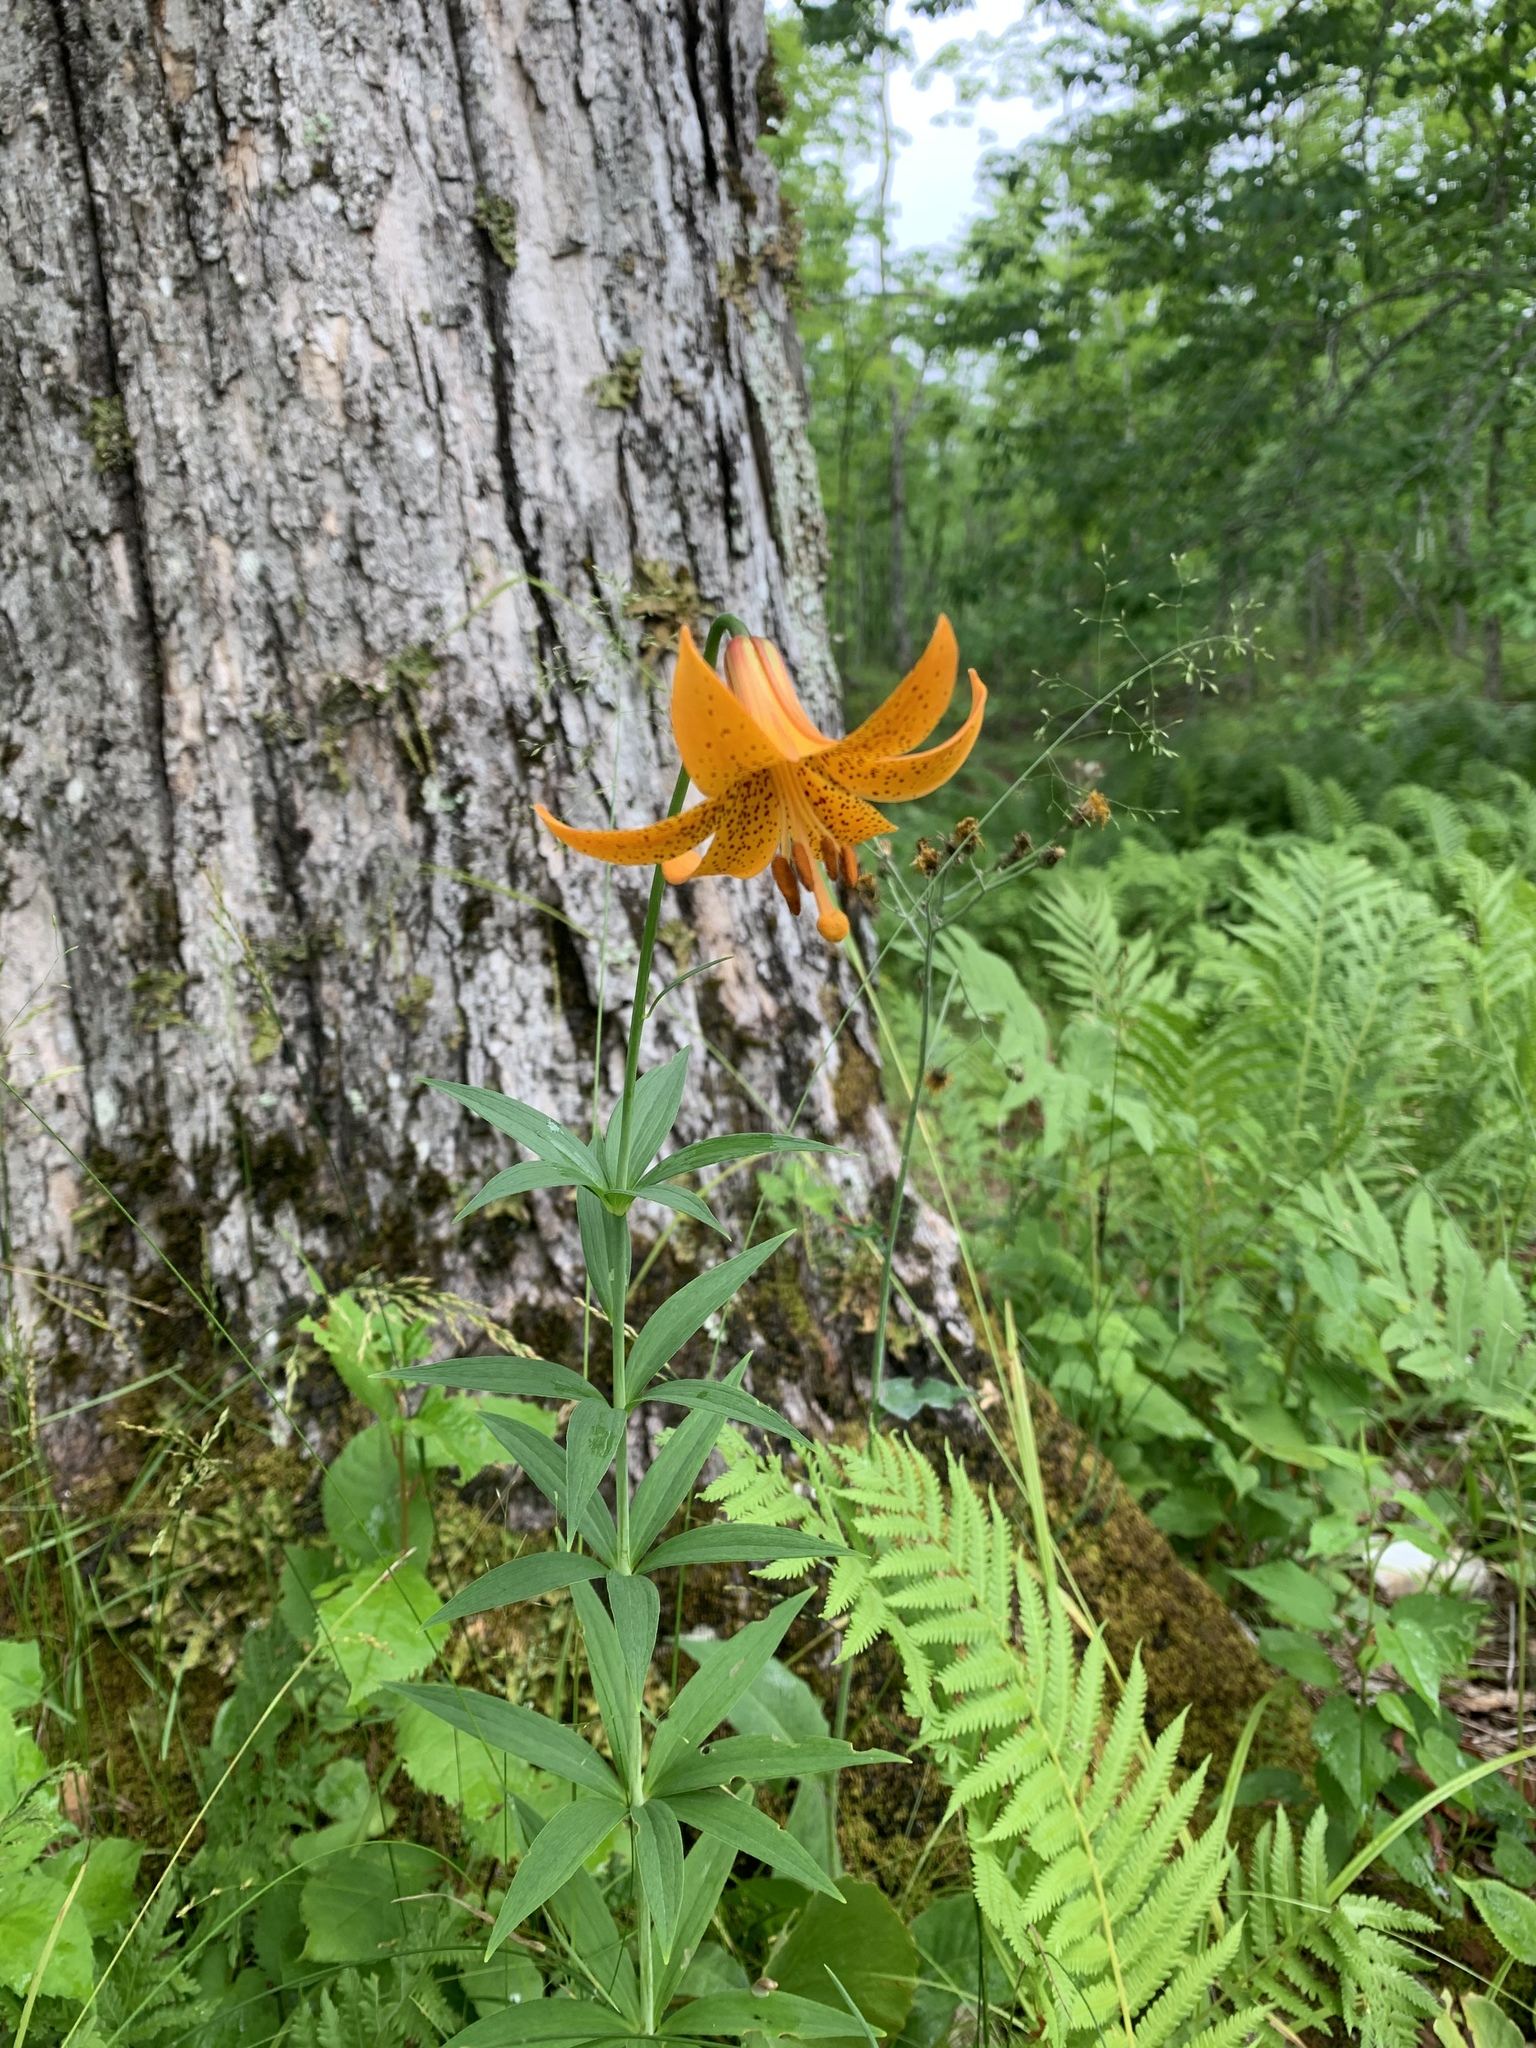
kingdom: Plantae
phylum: Tracheophyta
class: Liliopsida
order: Liliales
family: Liliaceae
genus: Lilium
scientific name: Lilium canadense
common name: Canada lily
